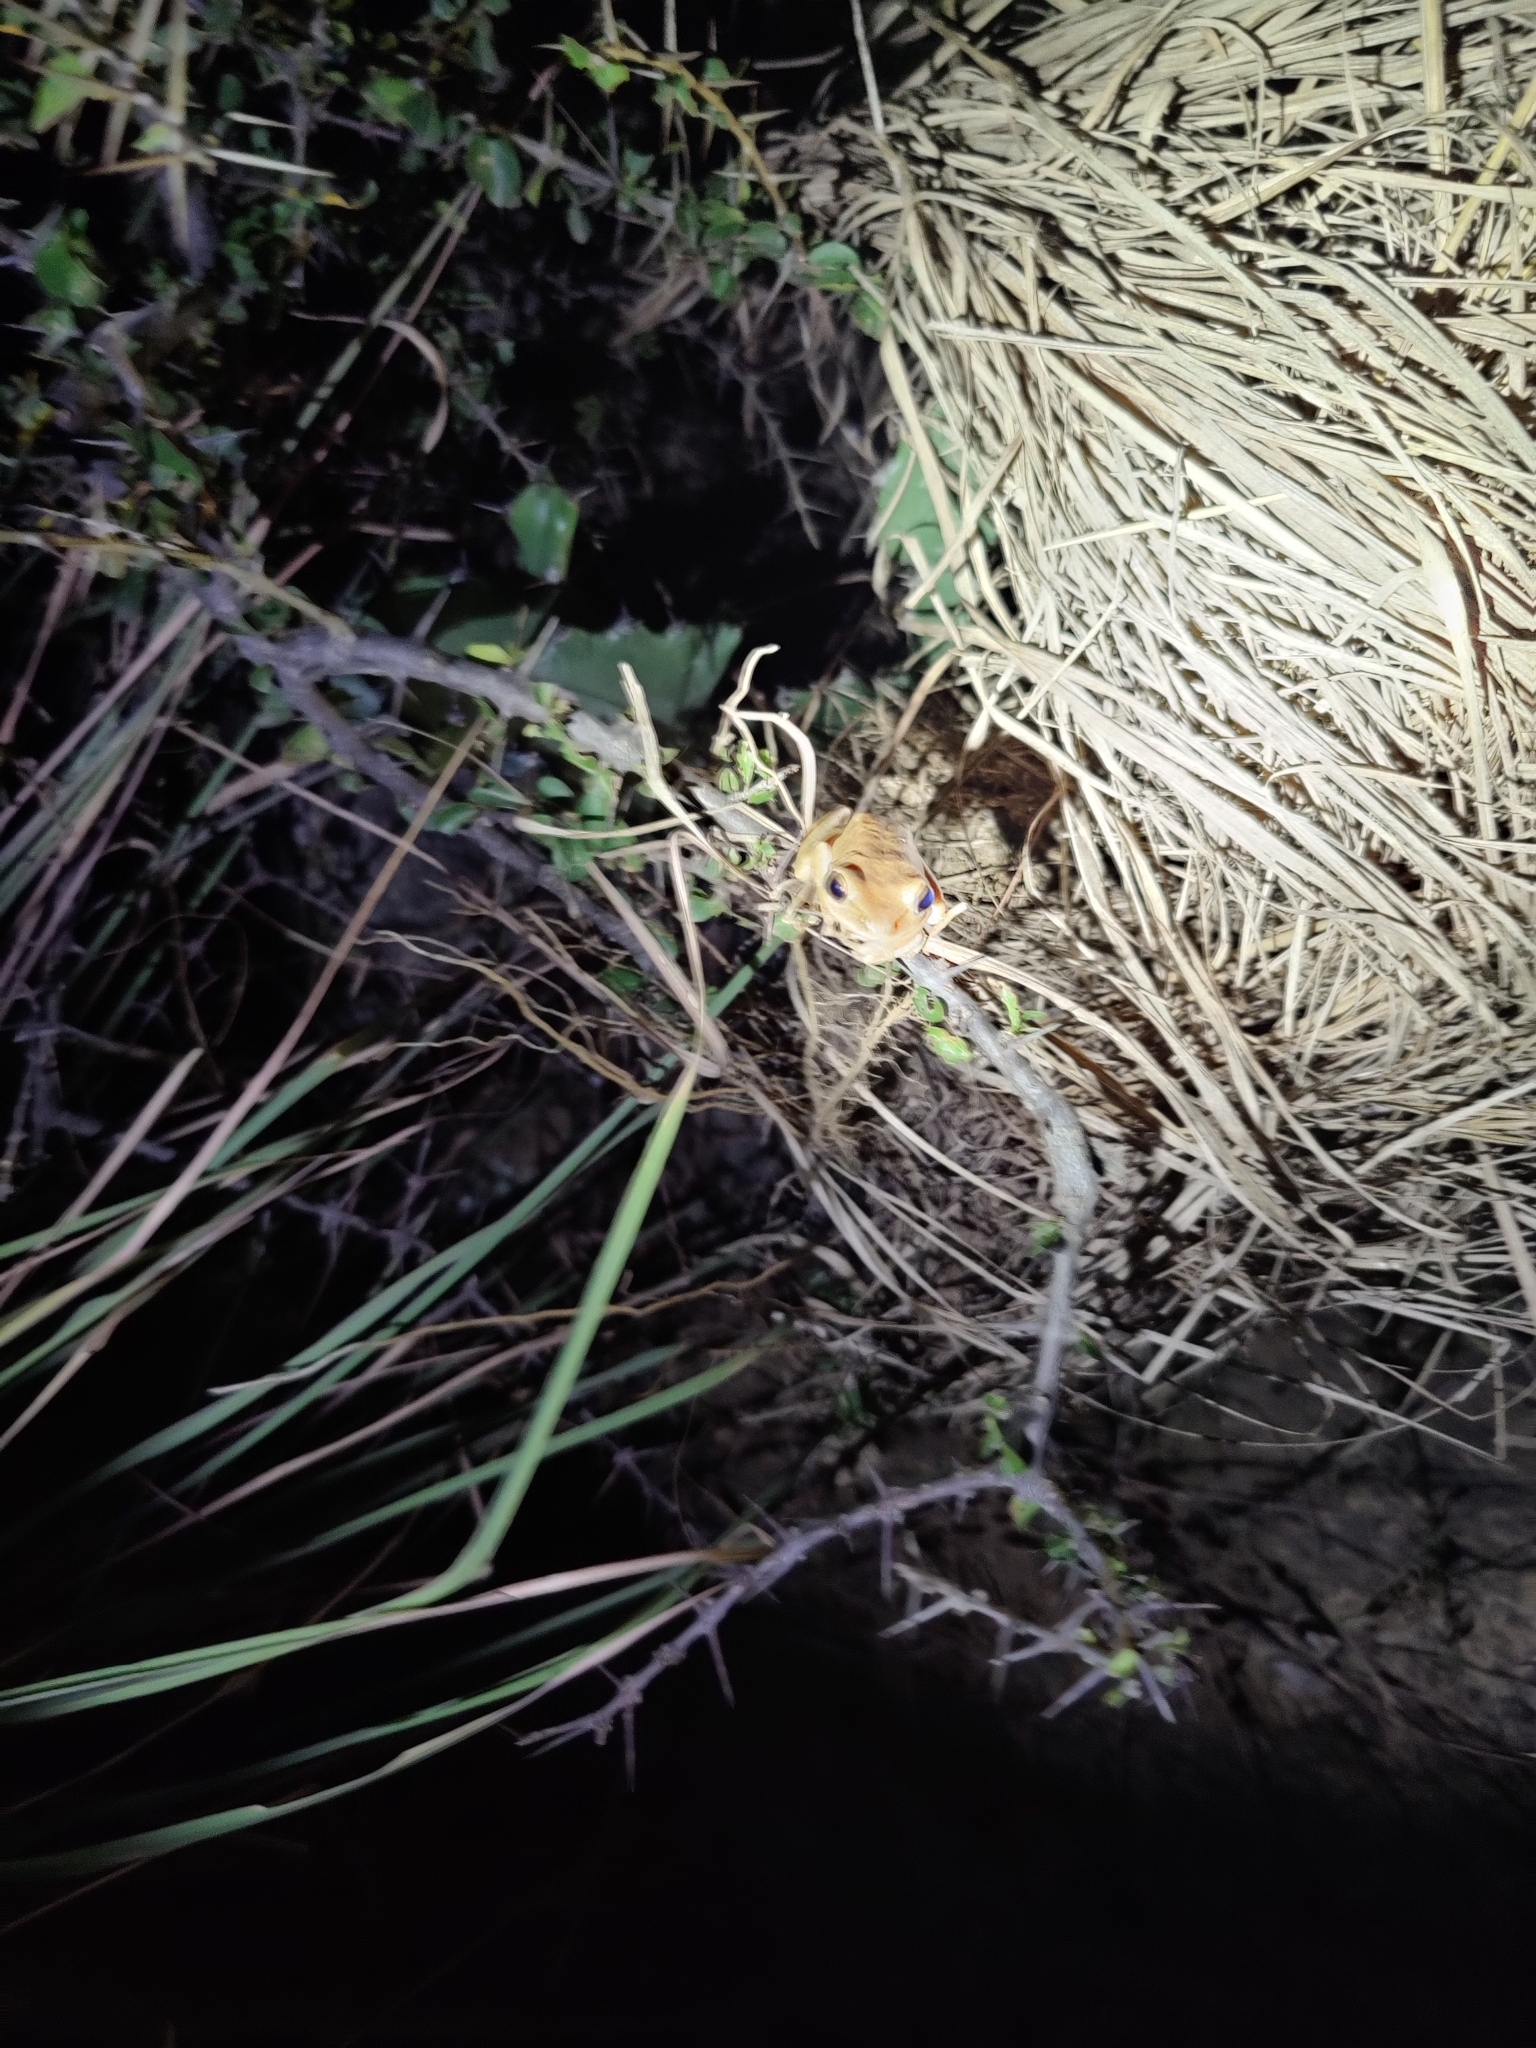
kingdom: Animalia
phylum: Chordata
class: Amphibia
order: Anura
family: Rhacophoridae
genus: Polypedates
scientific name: Polypedates maculatus
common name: Himalayan tree frog
